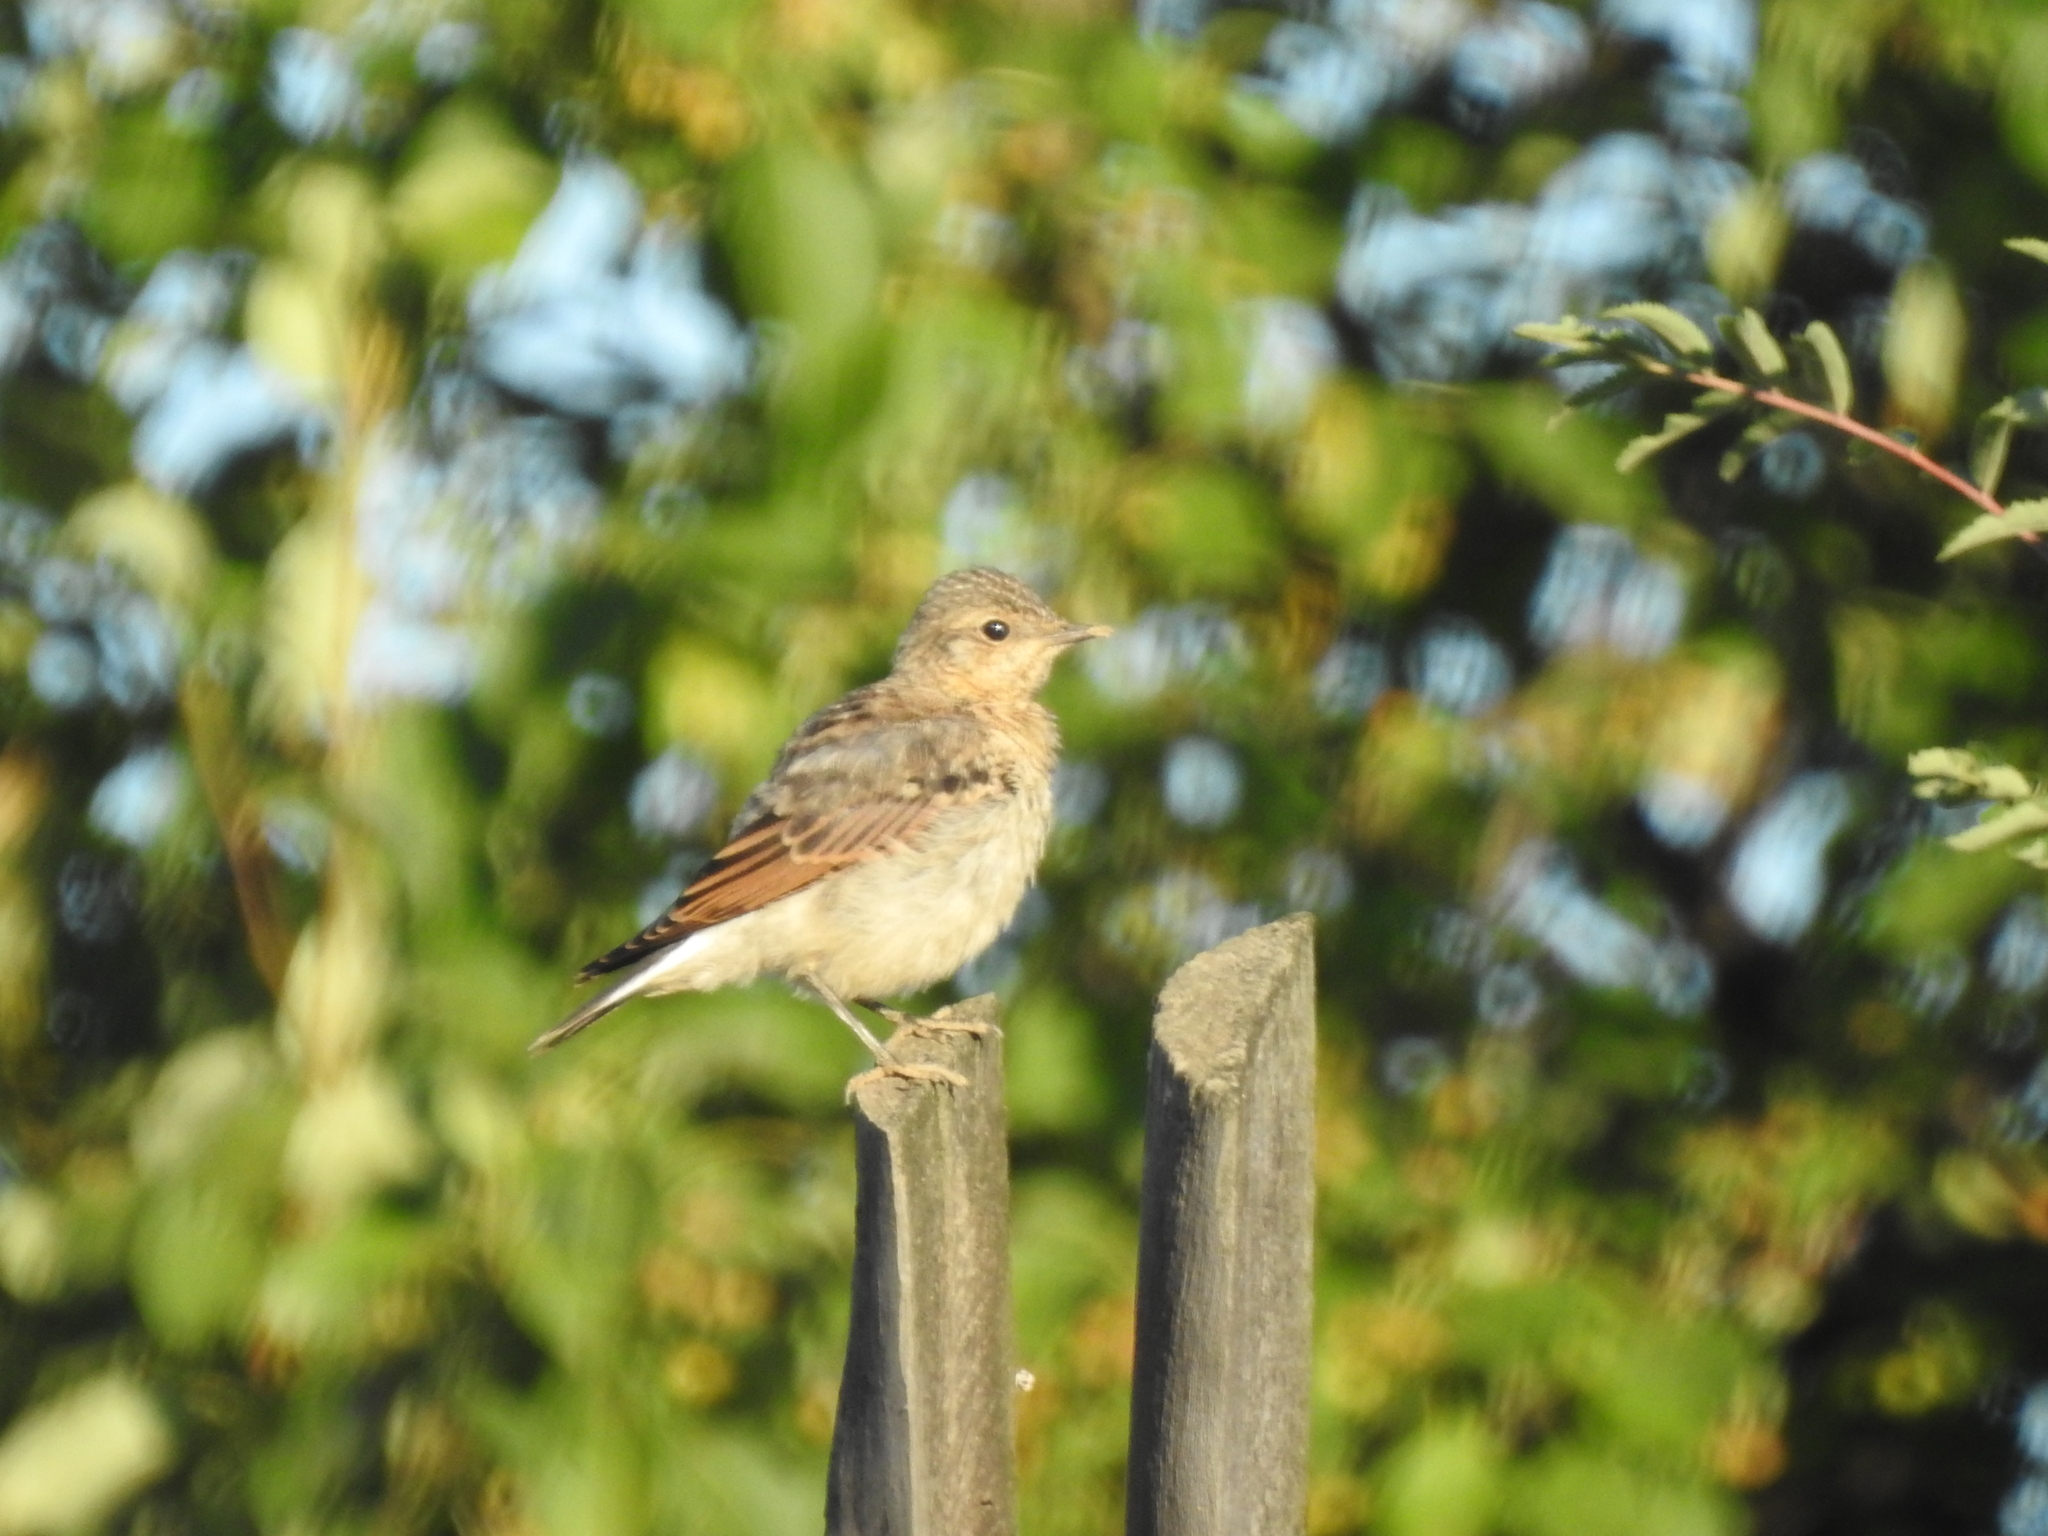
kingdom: Animalia
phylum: Chordata
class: Aves
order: Passeriformes
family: Muscicapidae
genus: Oenanthe
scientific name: Oenanthe oenanthe
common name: Northern wheatear
